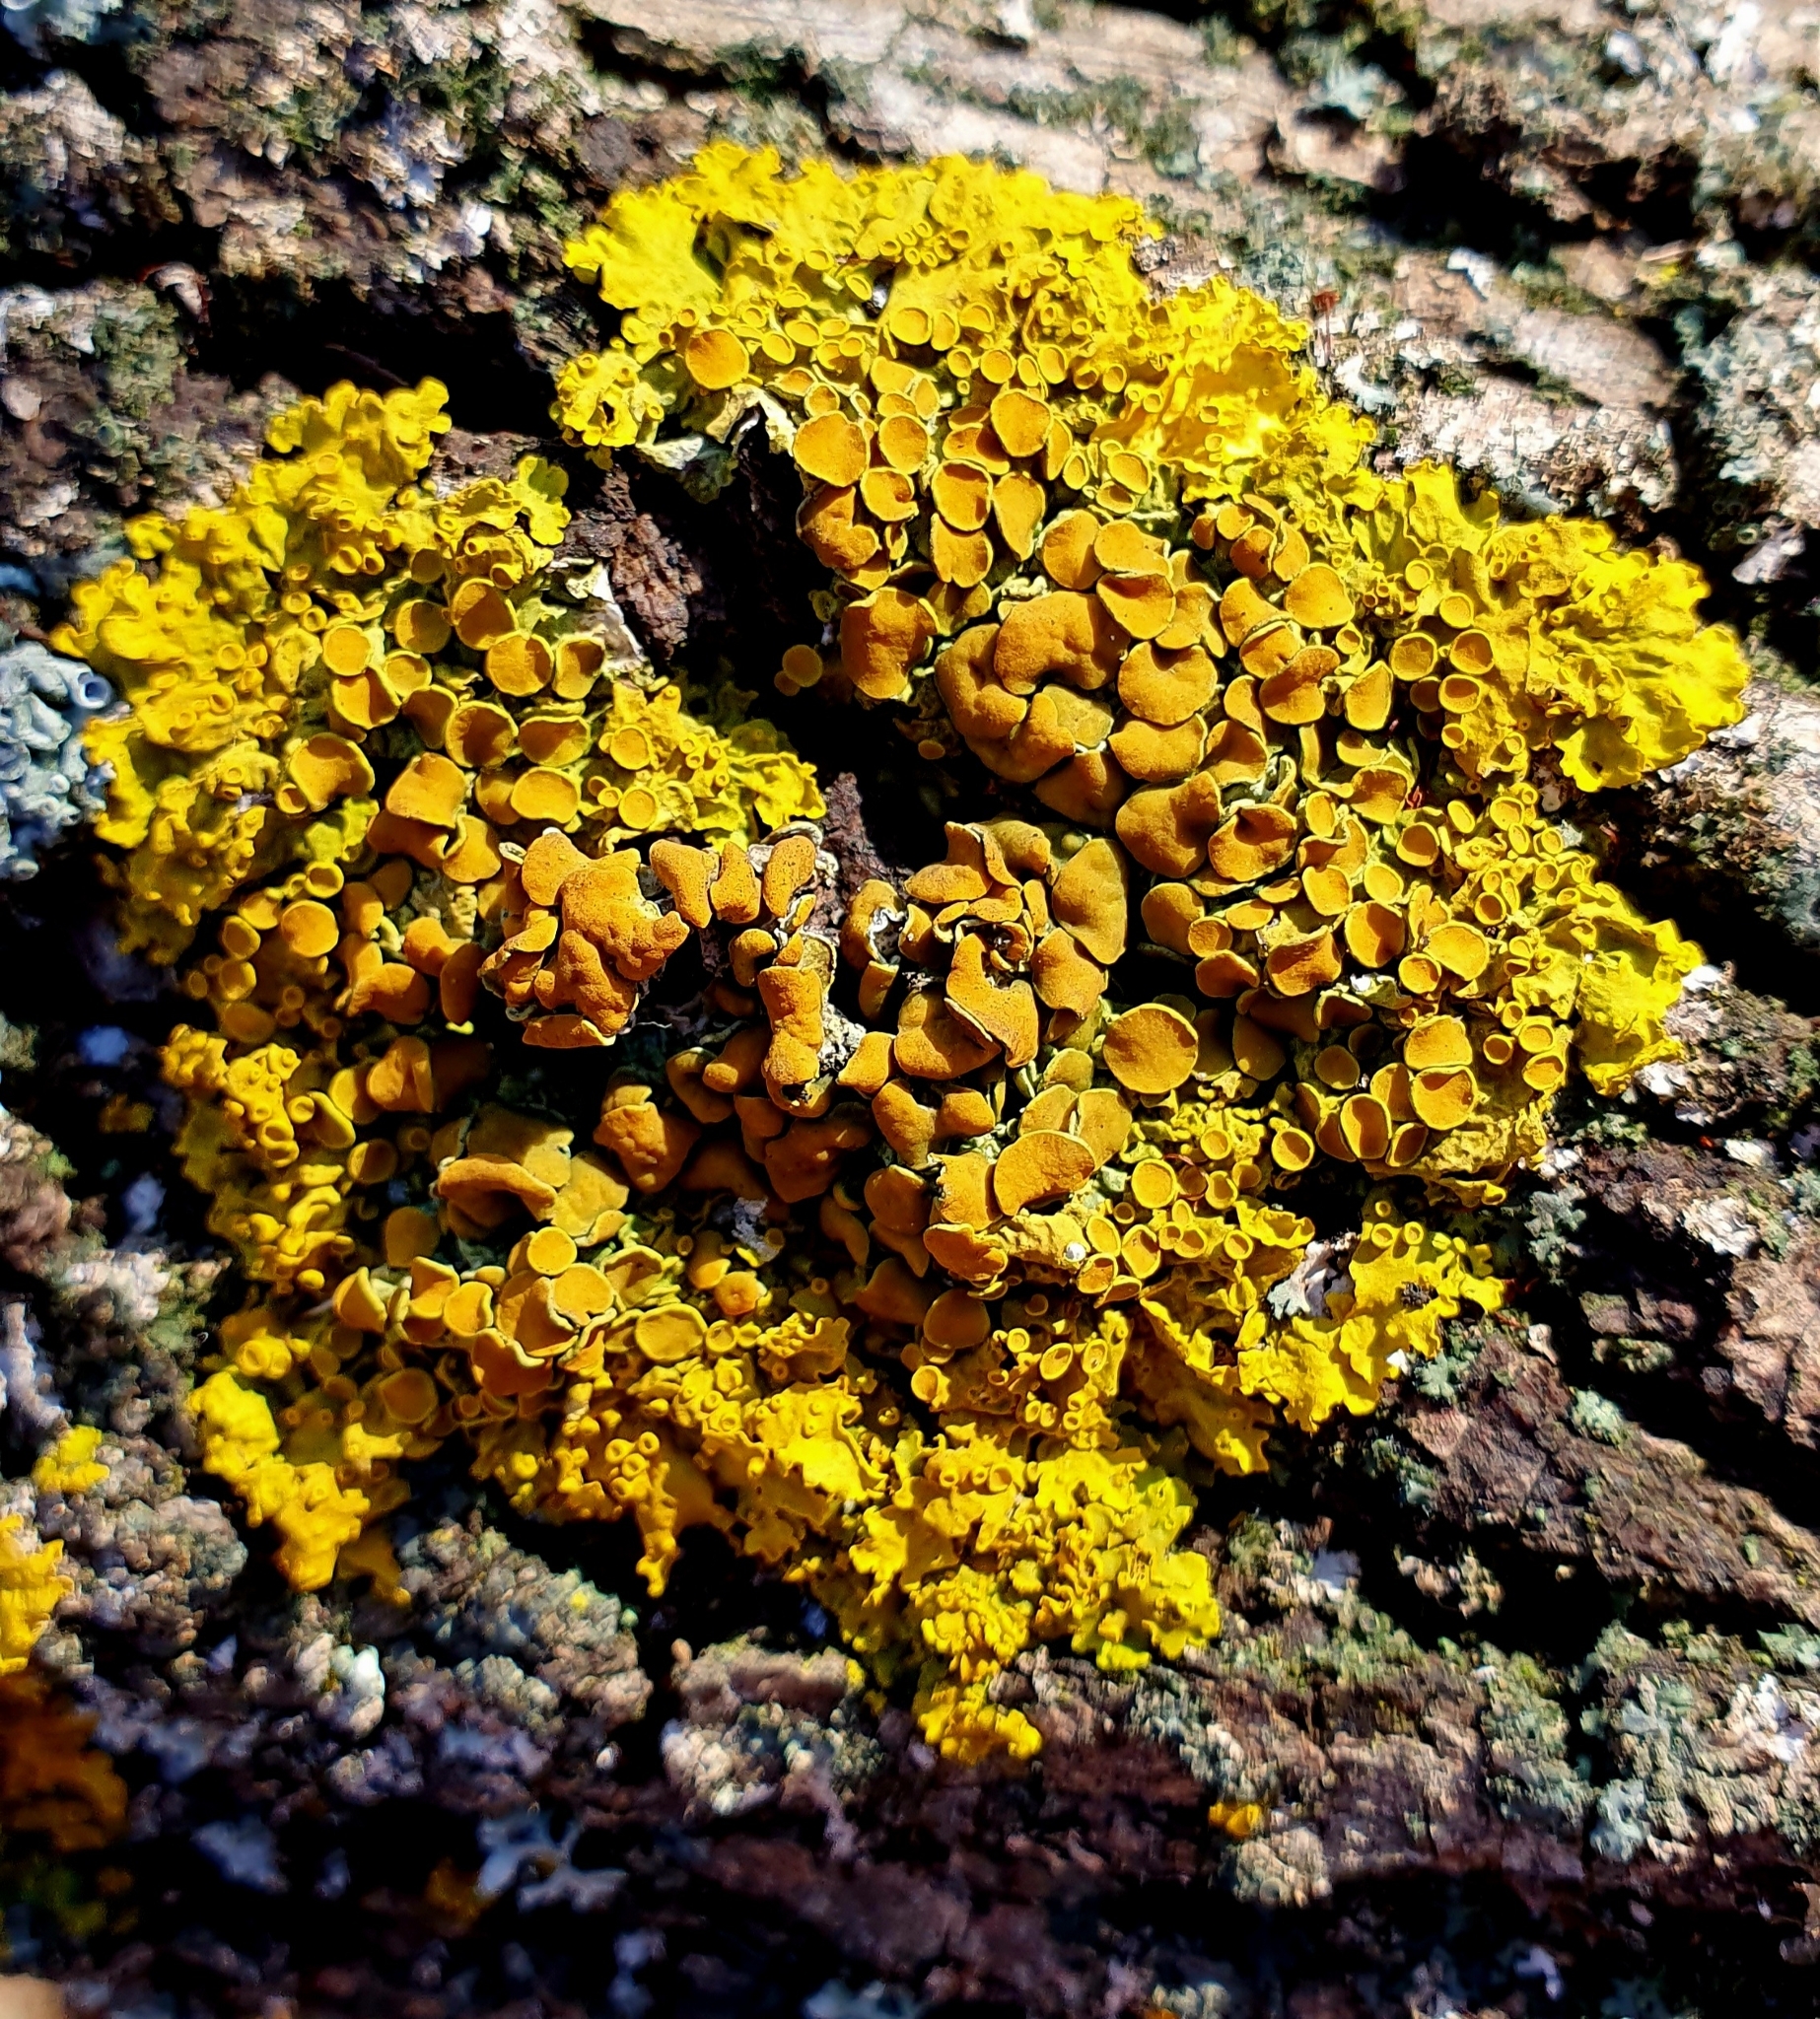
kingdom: Fungi
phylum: Ascomycota
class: Lecanoromycetes
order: Teloschistales
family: Teloschistaceae
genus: Xanthoria
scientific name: Xanthoria parietina
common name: Common orange lichen
